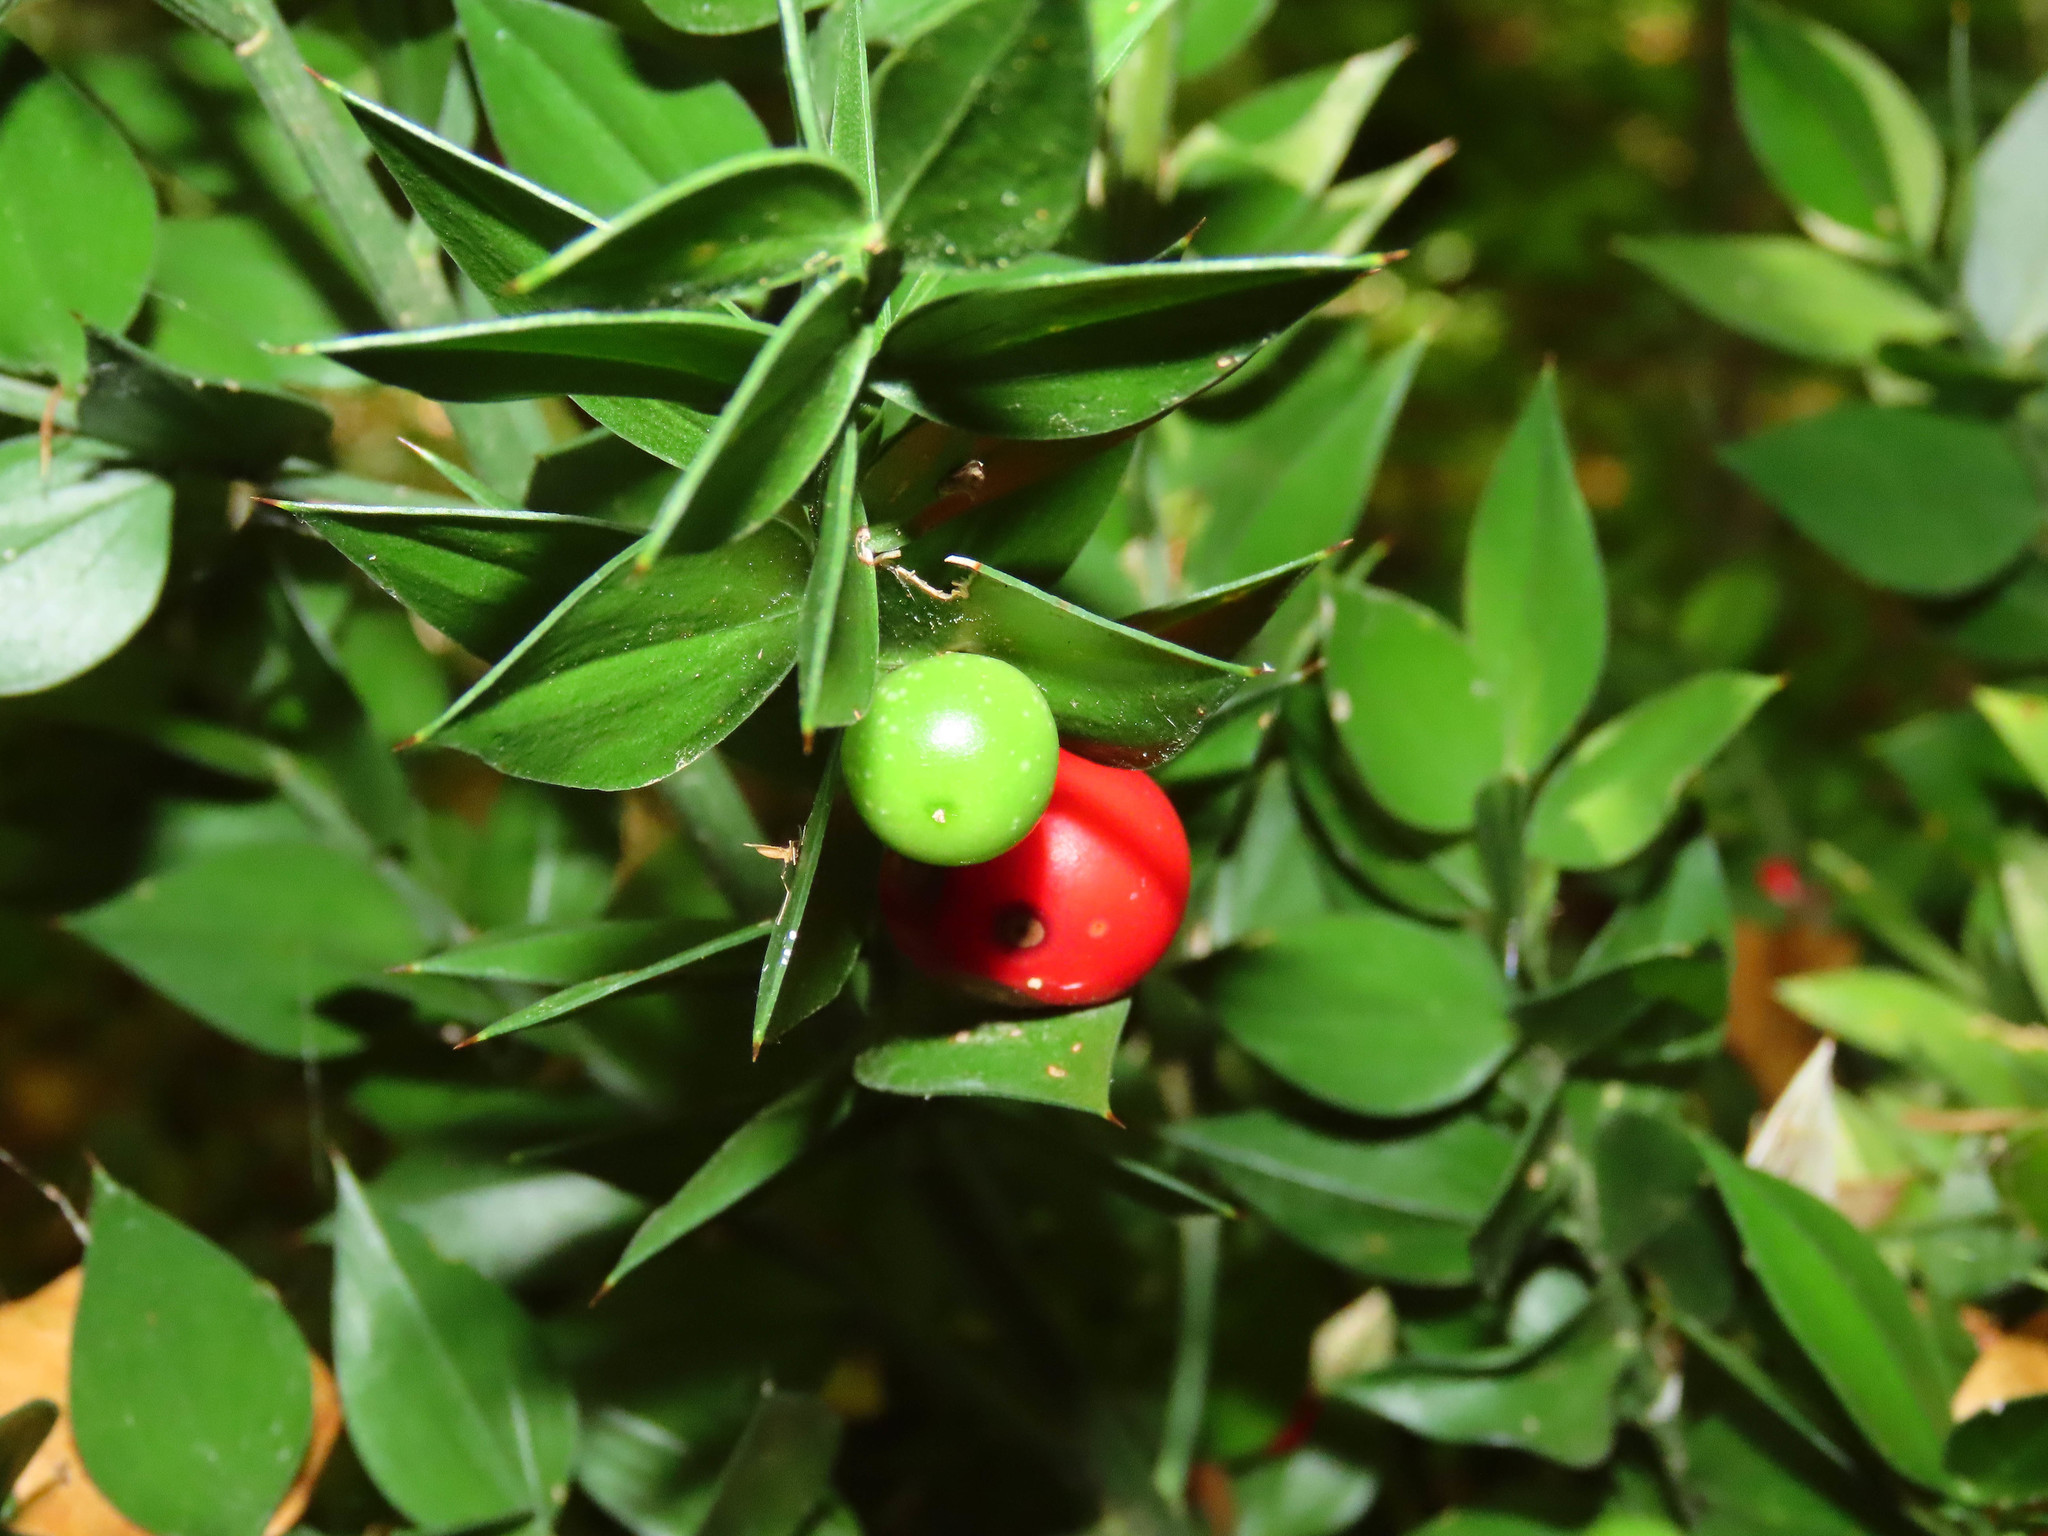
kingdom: Plantae
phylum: Tracheophyta
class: Liliopsida
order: Asparagales
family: Asparagaceae
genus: Ruscus
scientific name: Ruscus aculeatus
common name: Butcher's-broom
